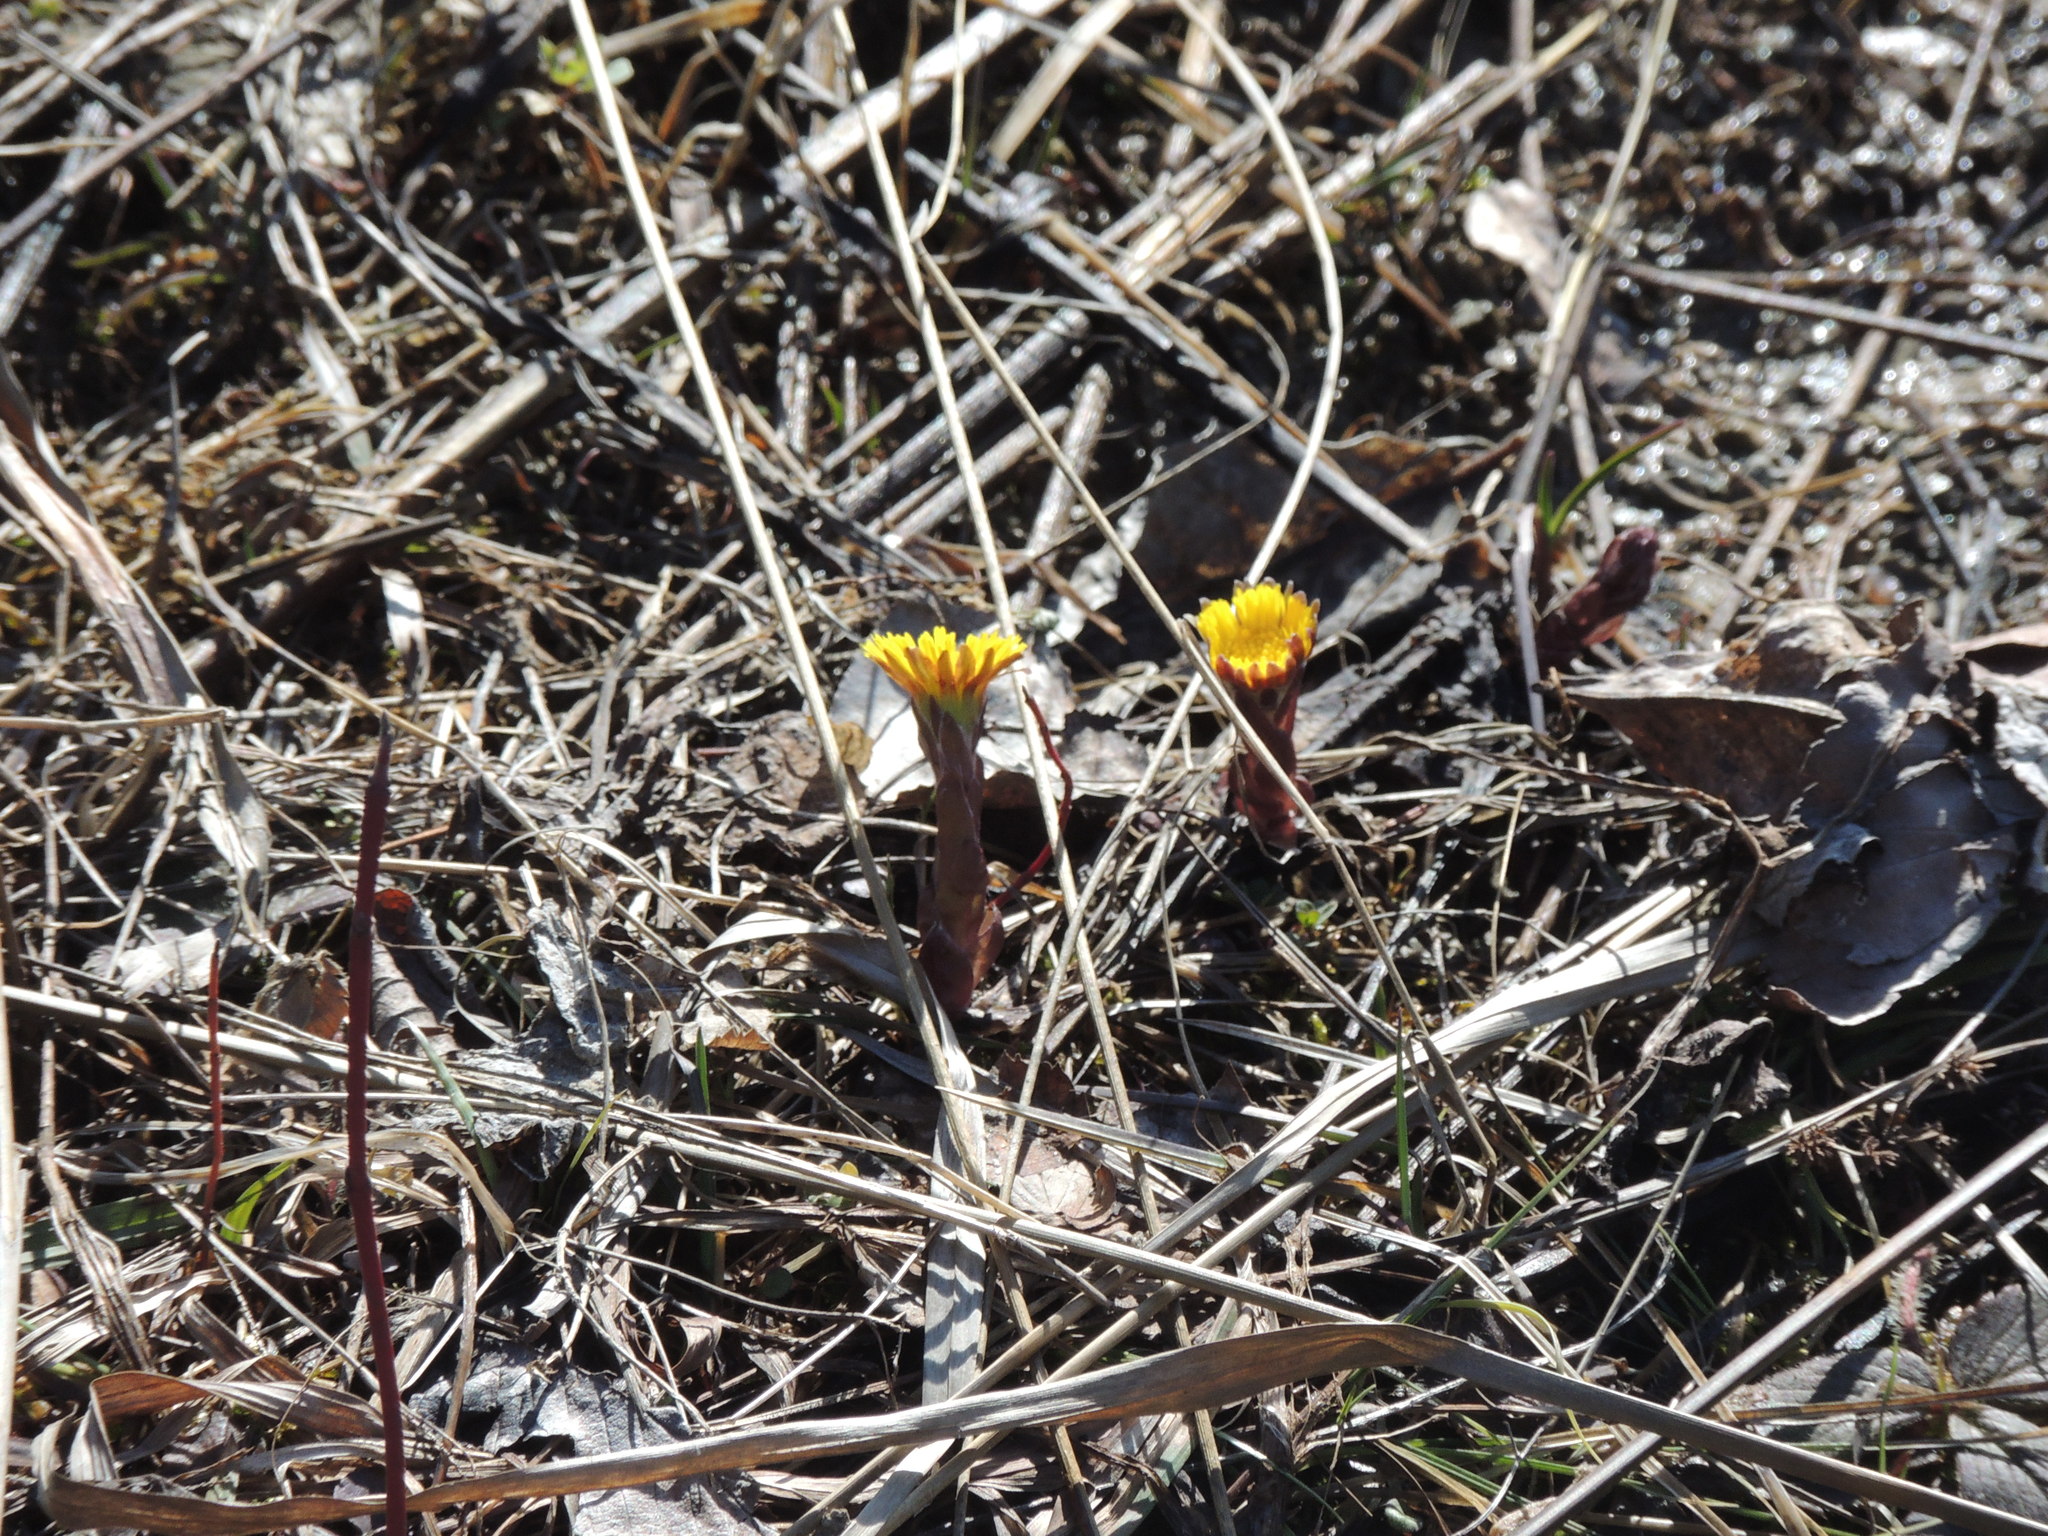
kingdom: Plantae
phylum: Tracheophyta
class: Magnoliopsida
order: Asterales
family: Asteraceae
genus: Tussilago
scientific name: Tussilago farfara
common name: Coltsfoot
